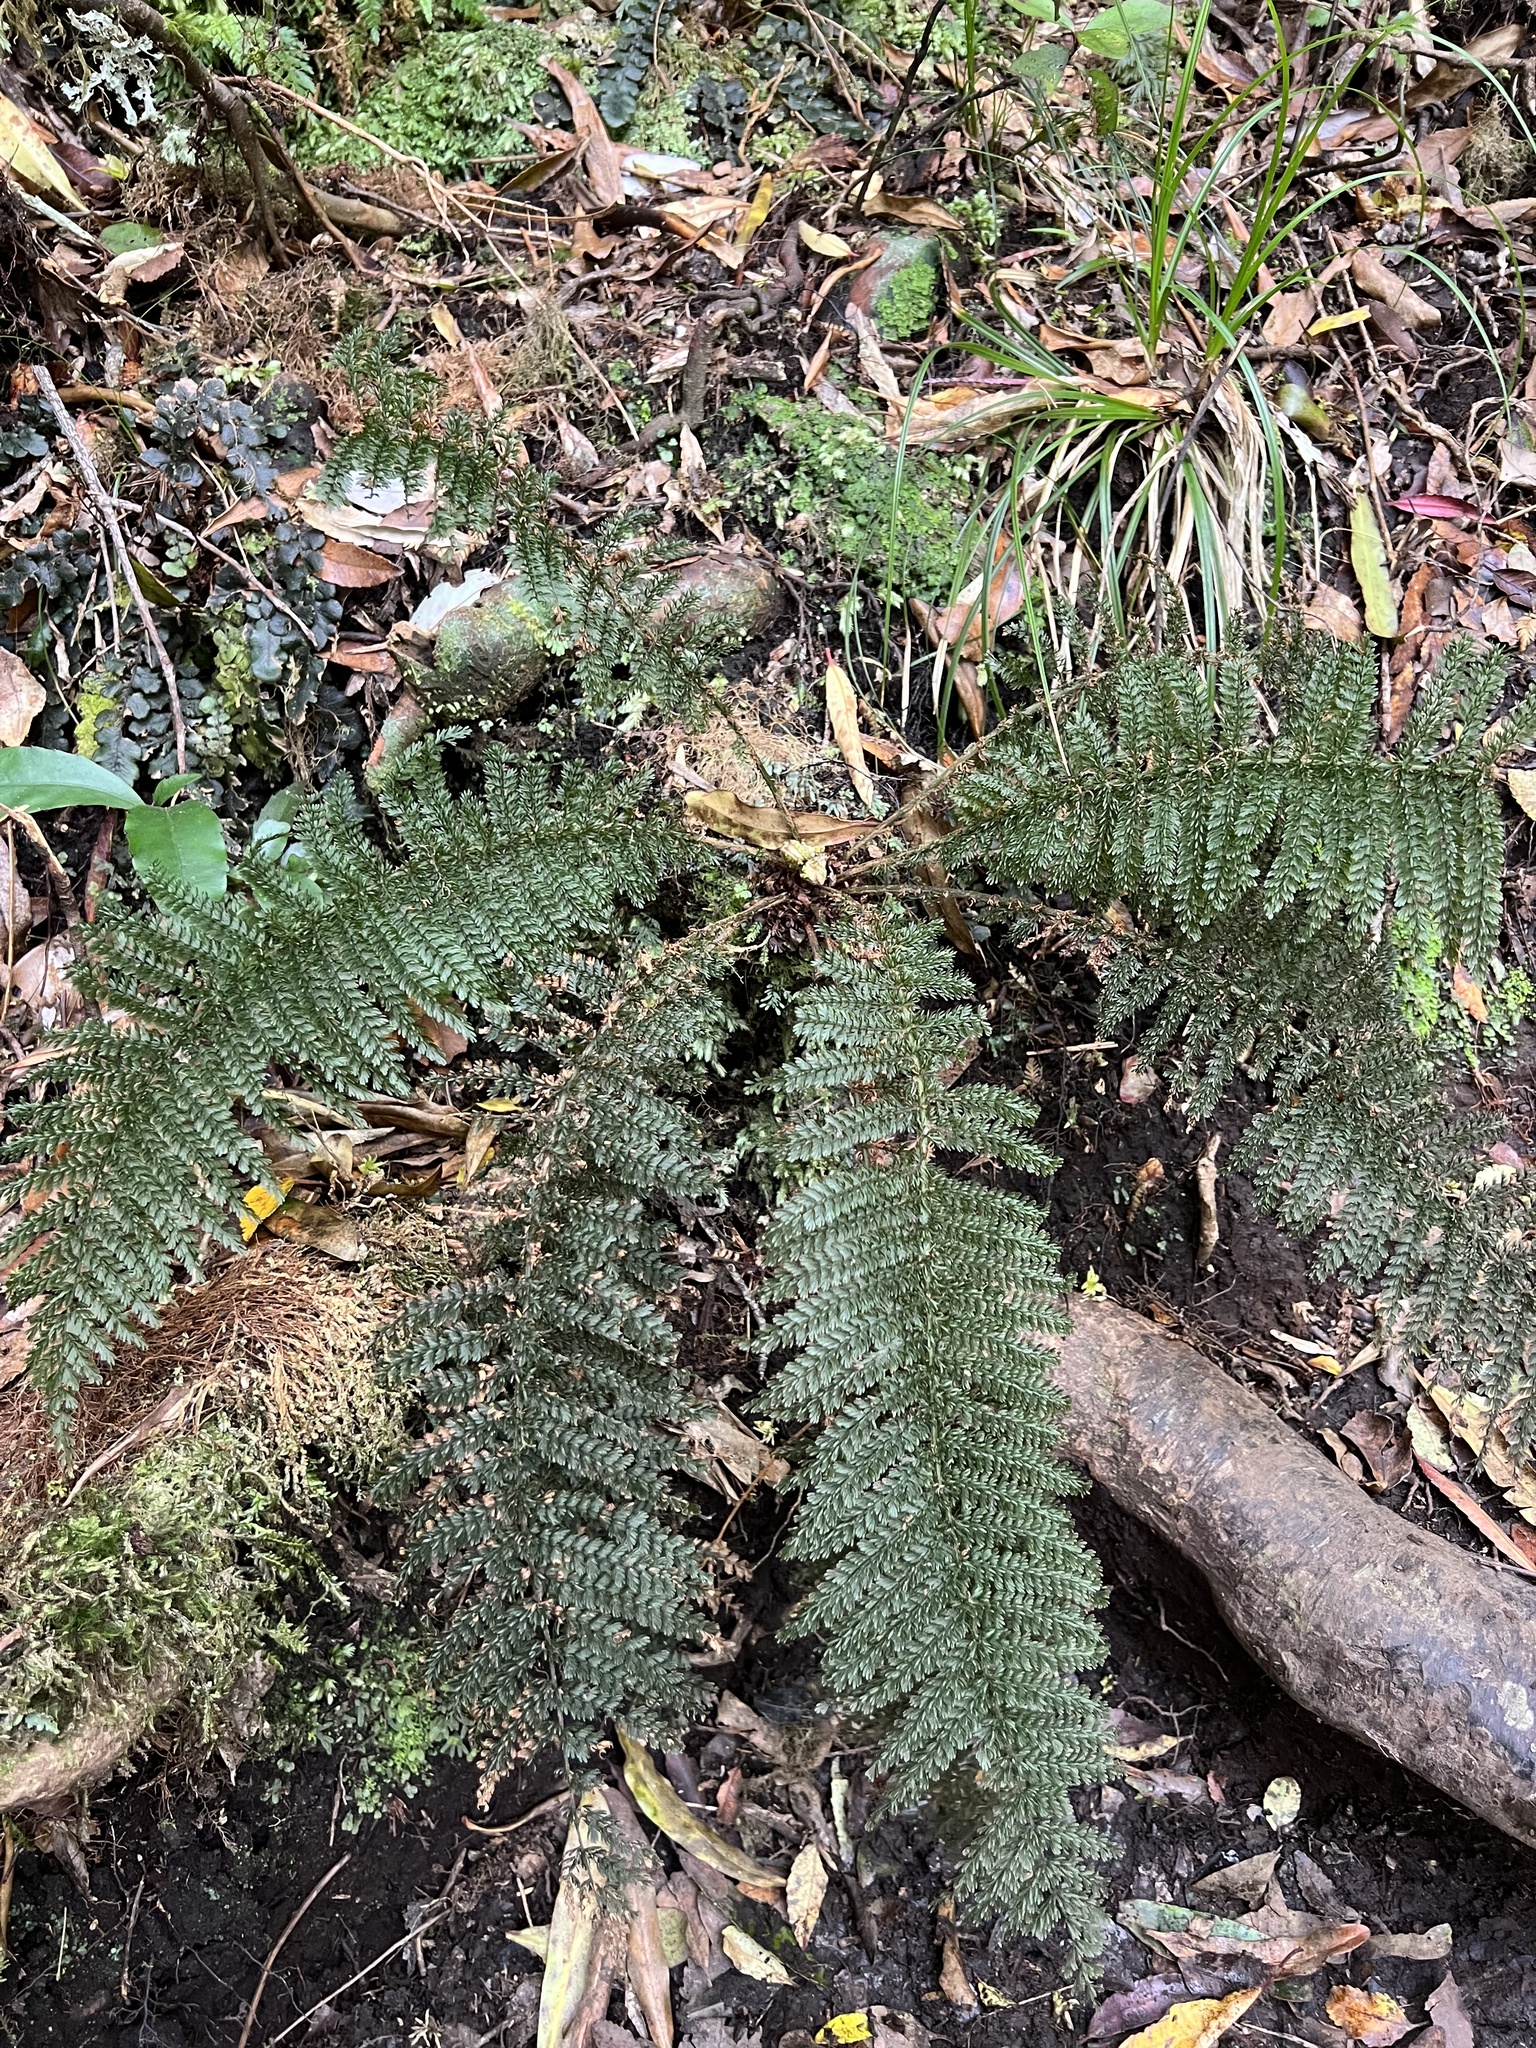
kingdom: Plantae
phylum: Tracheophyta
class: Polypodiopsida
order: Osmundales
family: Osmundaceae
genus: Leptopteris
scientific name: Leptopteris superba
